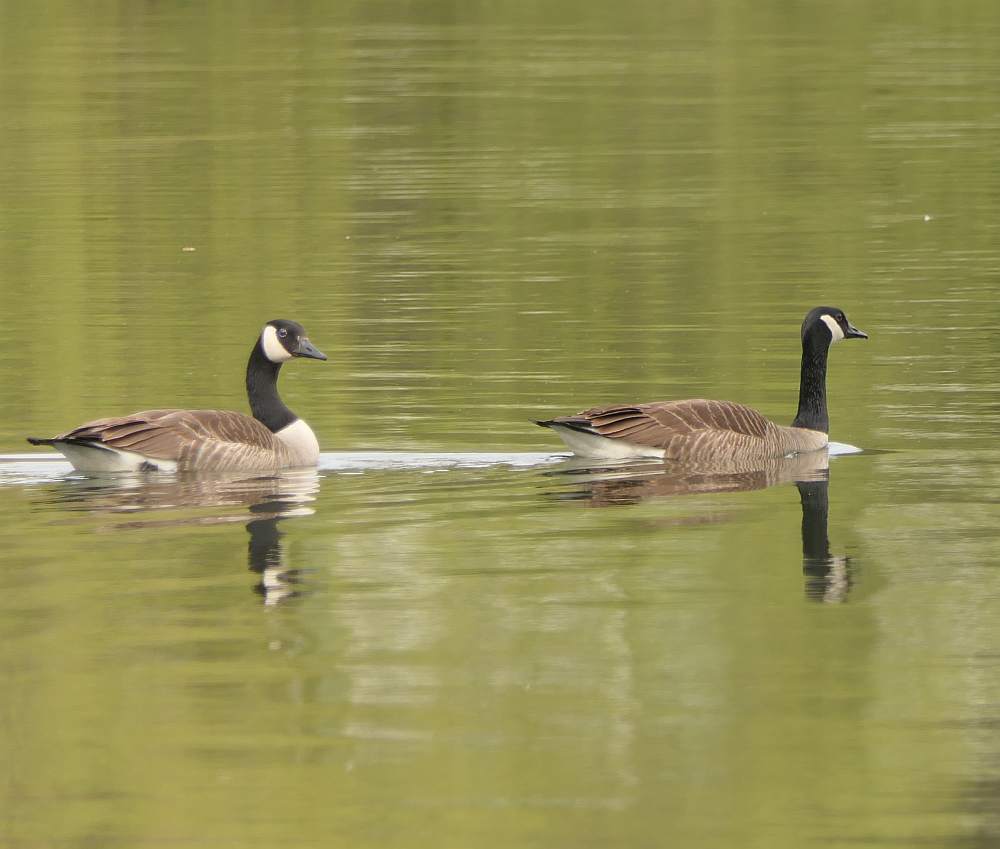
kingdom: Animalia
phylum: Chordata
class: Aves
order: Anseriformes
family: Anatidae
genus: Branta
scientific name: Branta canadensis
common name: Canada goose
